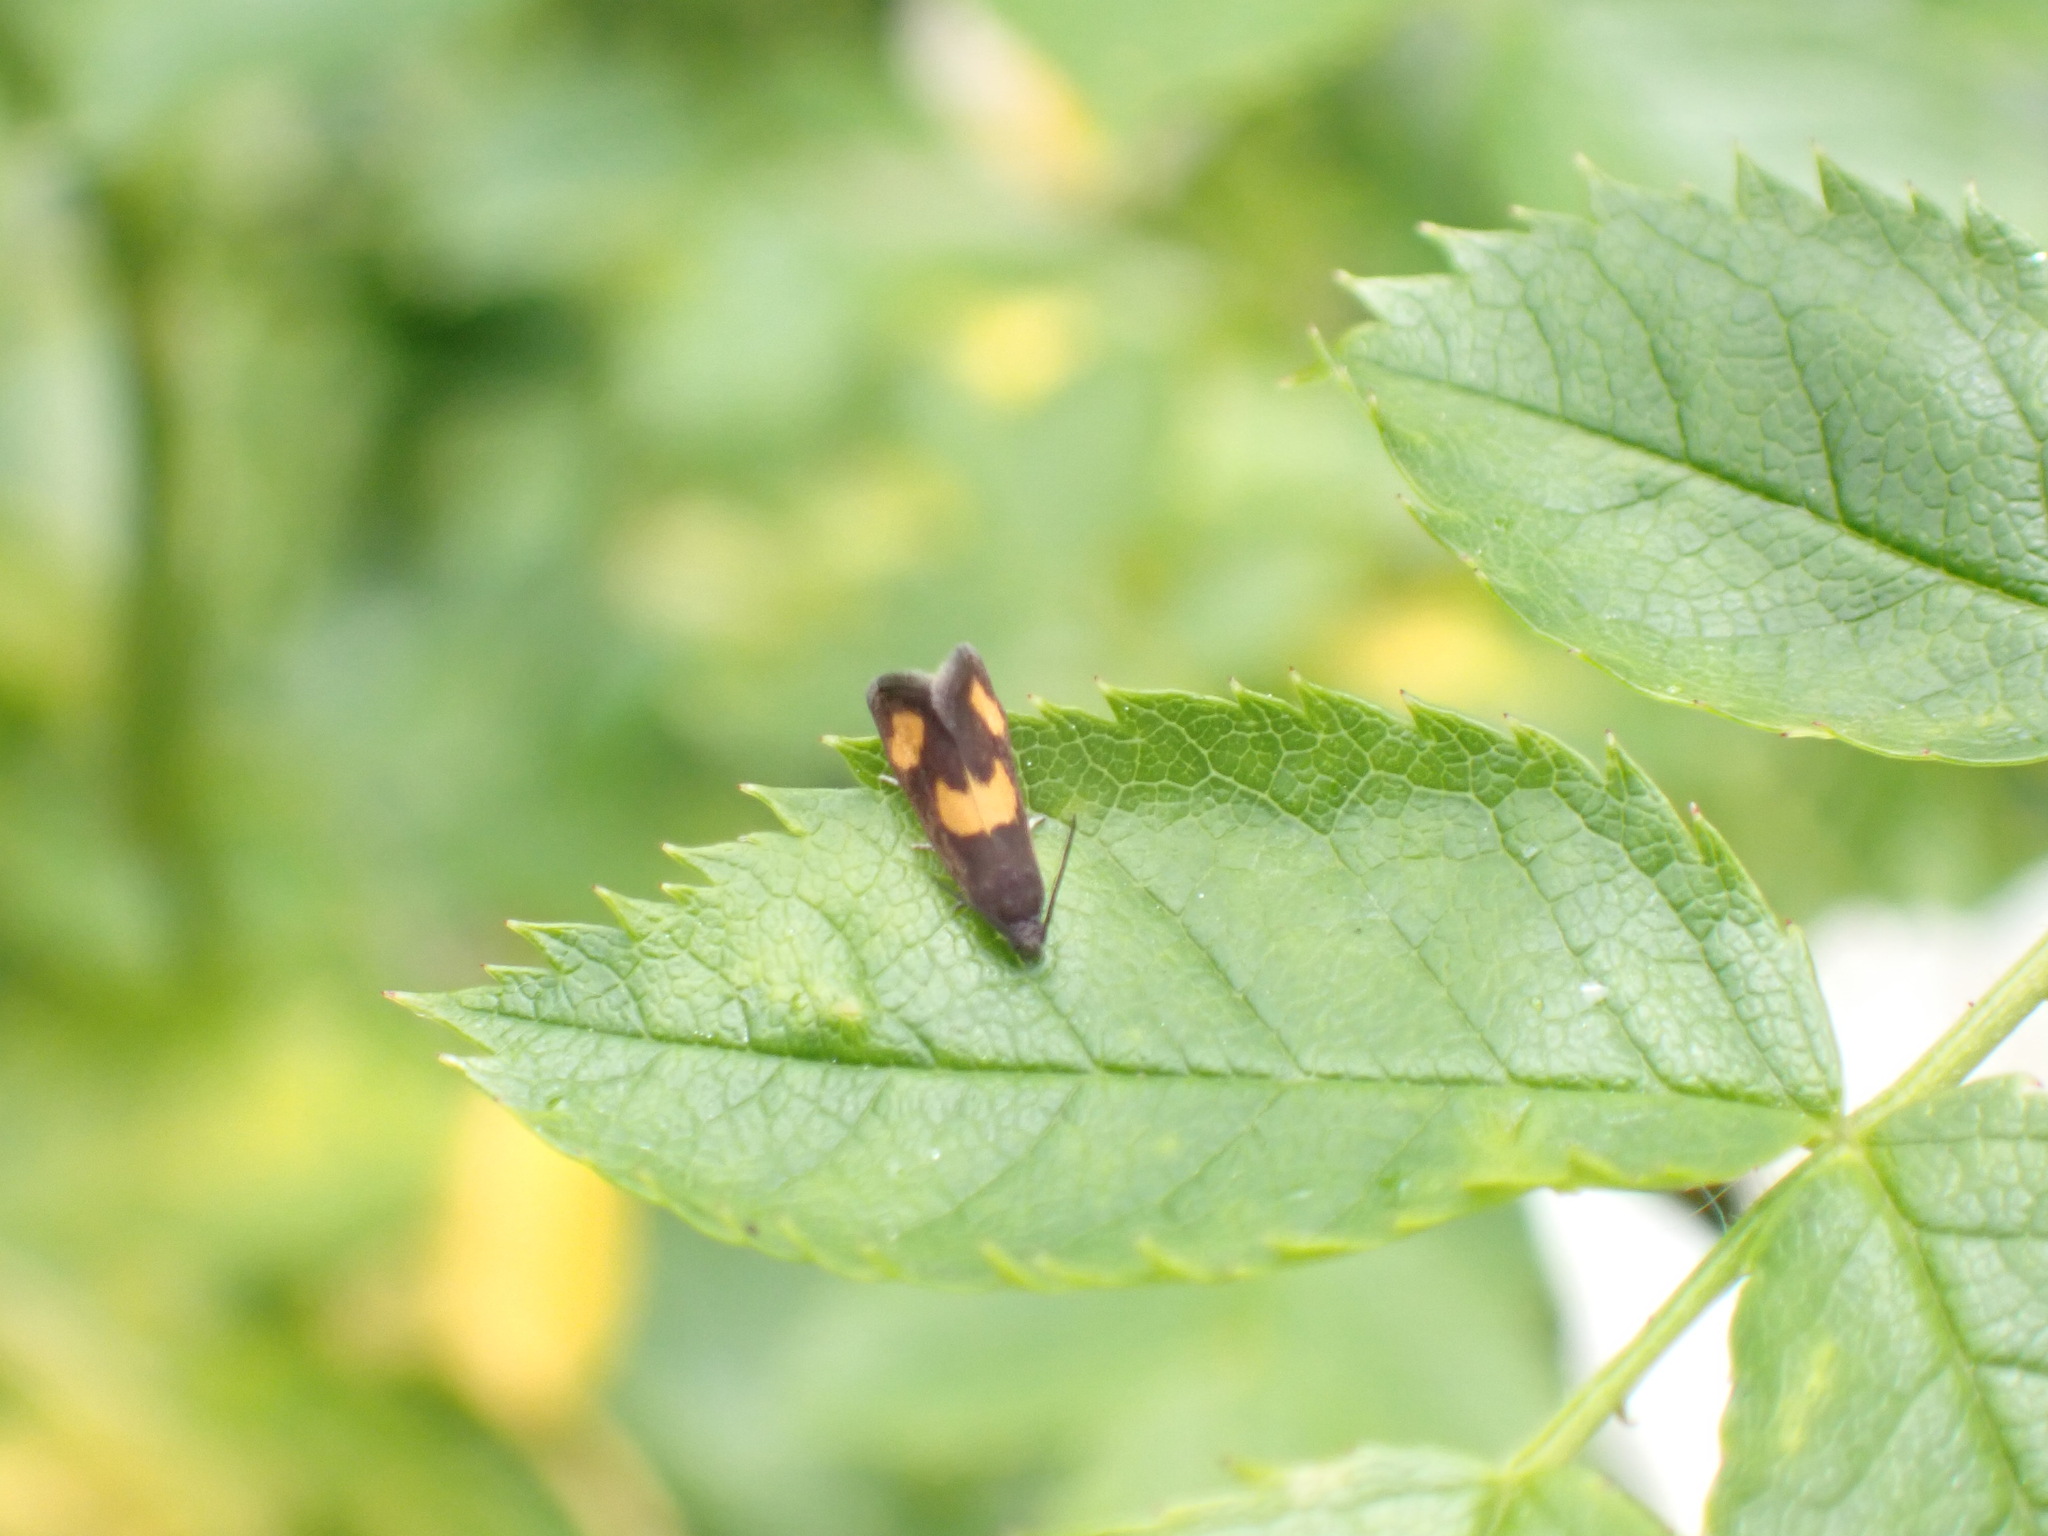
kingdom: Animalia
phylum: Arthropoda
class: Insecta
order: Lepidoptera
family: Tortricidae
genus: Pammene
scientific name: Pammene aurana
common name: Orange-spot piercer
